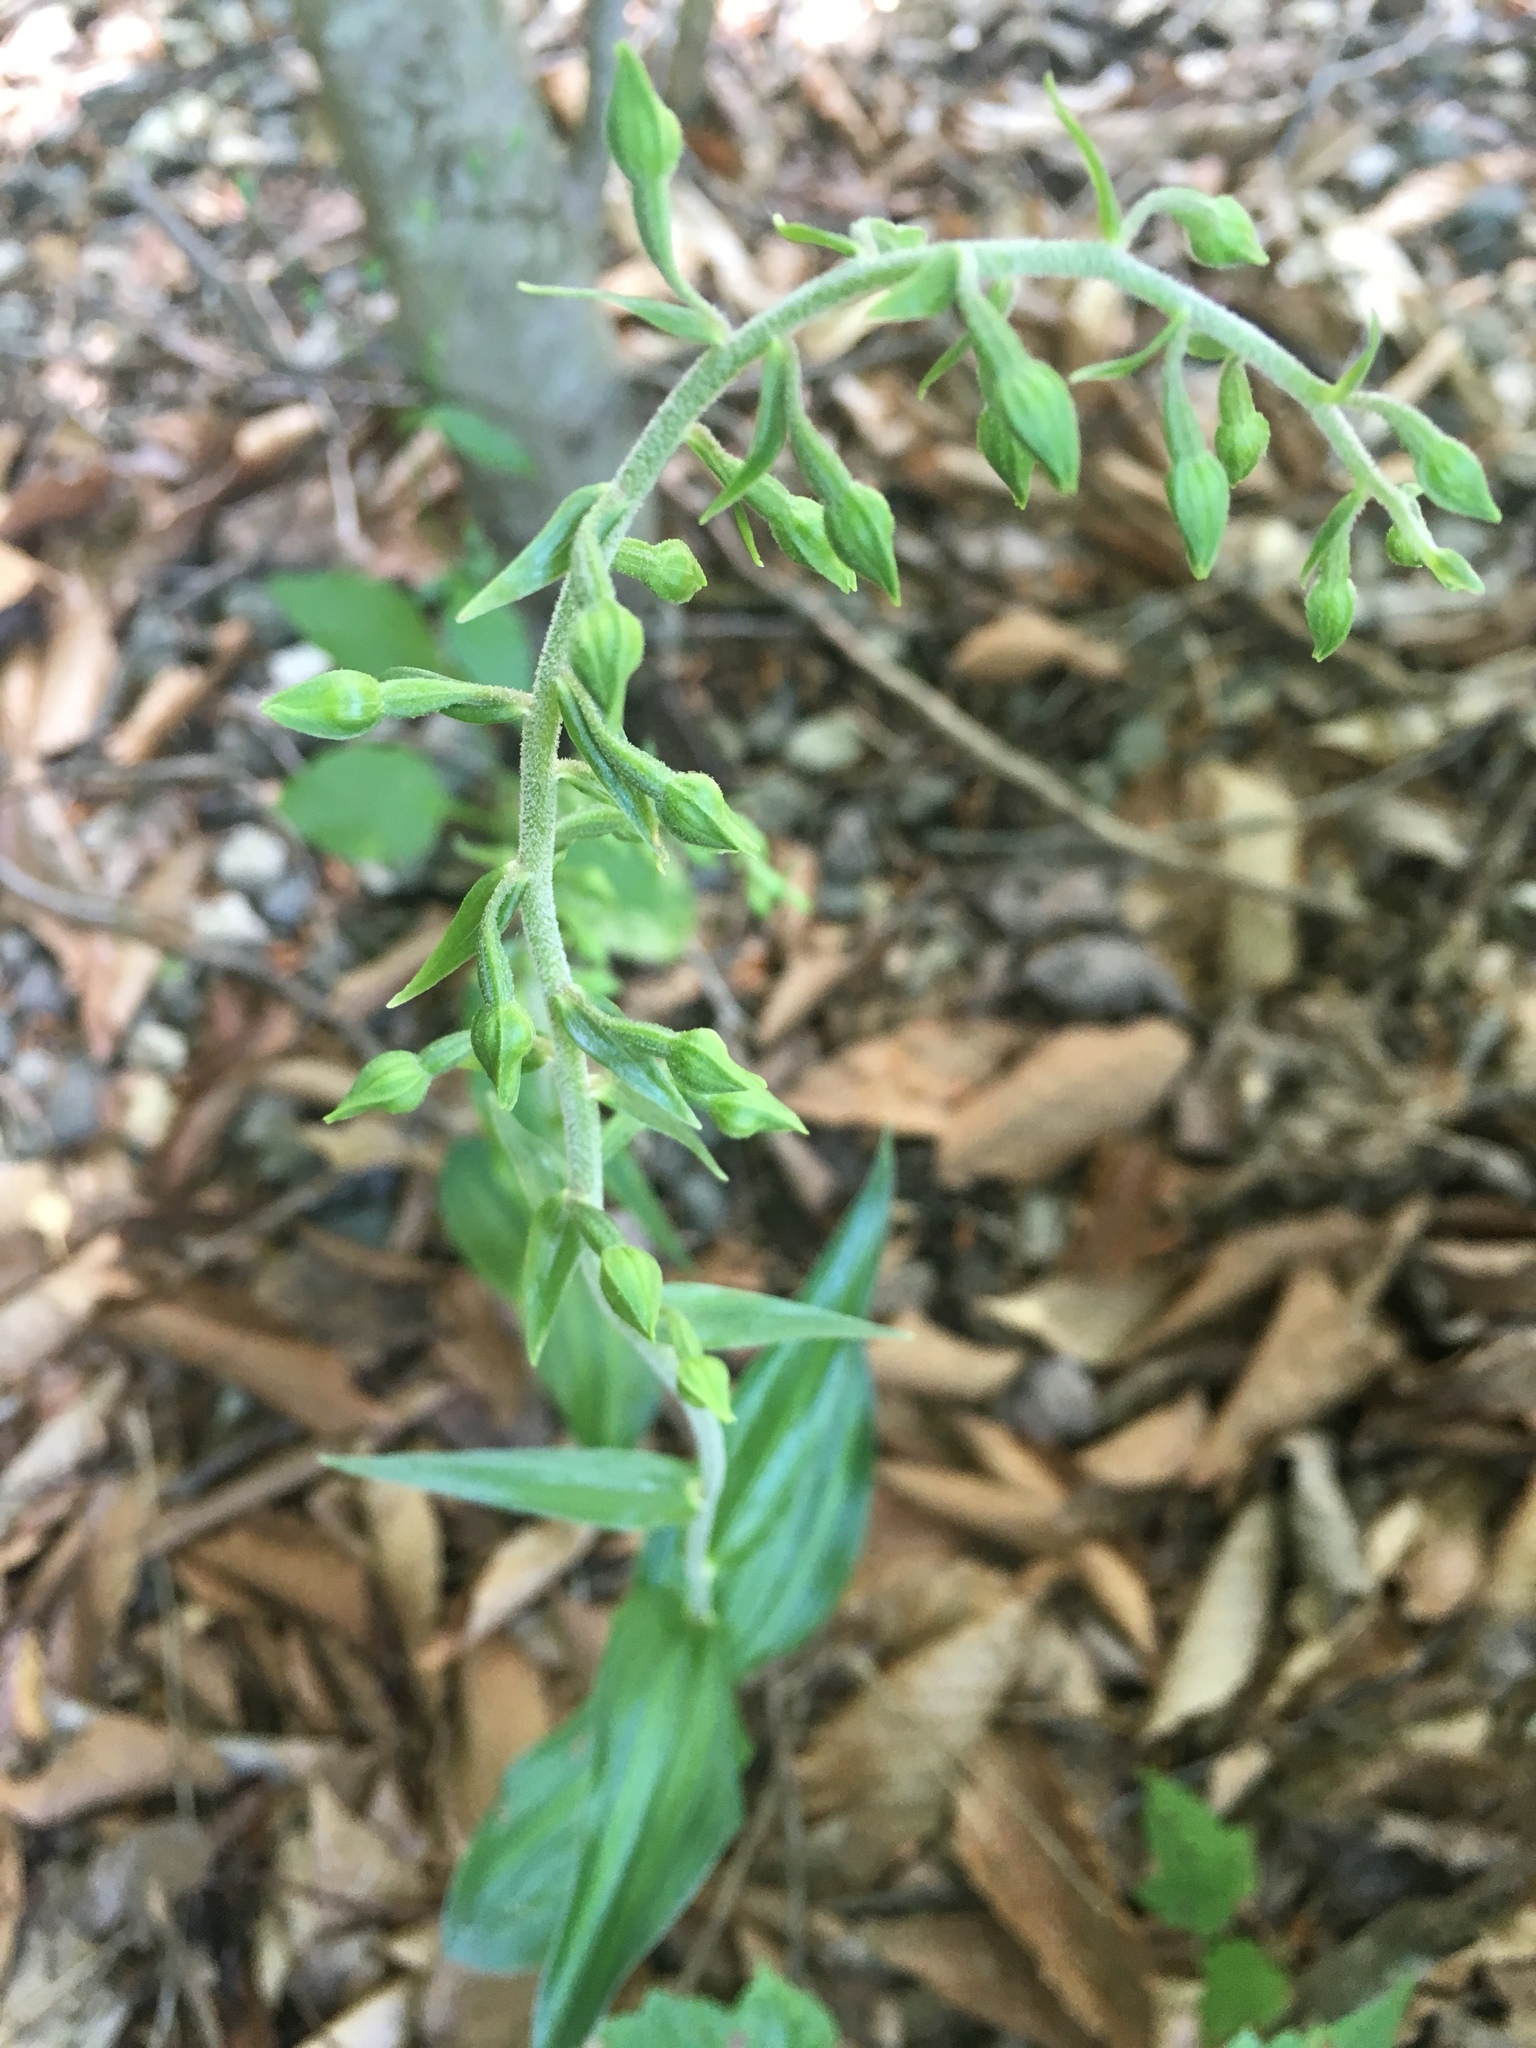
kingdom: Plantae
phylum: Tracheophyta
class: Liliopsida
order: Asparagales
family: Orchidaceae
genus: Epipactis
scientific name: Epipactis helleborine
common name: Broad-leaved helleborine
